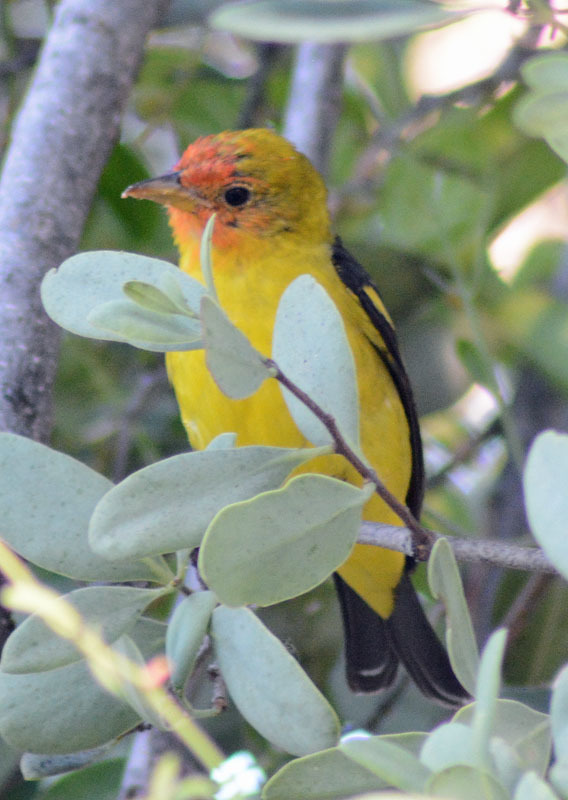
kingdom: Animalia
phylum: Chordata
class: Aves
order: Passeriformes
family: Cardinalidae
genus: Piranga
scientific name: Piranga ludoviciana
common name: Western tanager
